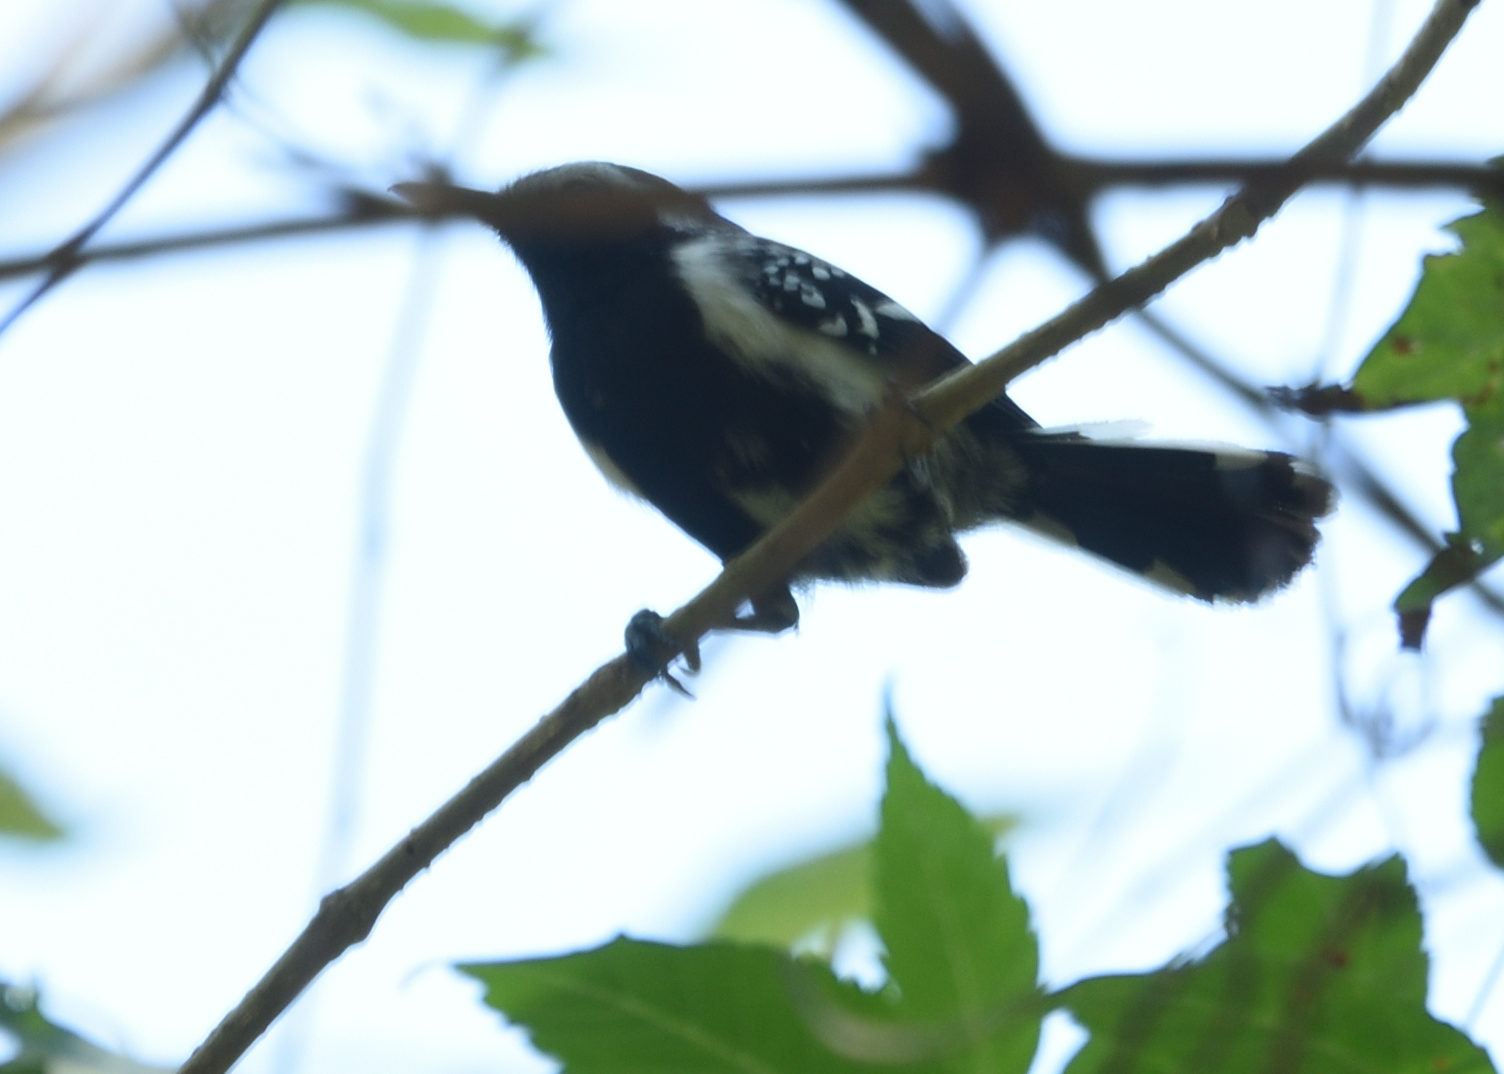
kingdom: Animalia
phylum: Chordata
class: Aves
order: Passeriformes
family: Thamnophilidae
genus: Formicivora
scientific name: Formicivora intermedia
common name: Northern white-fringed antwren
